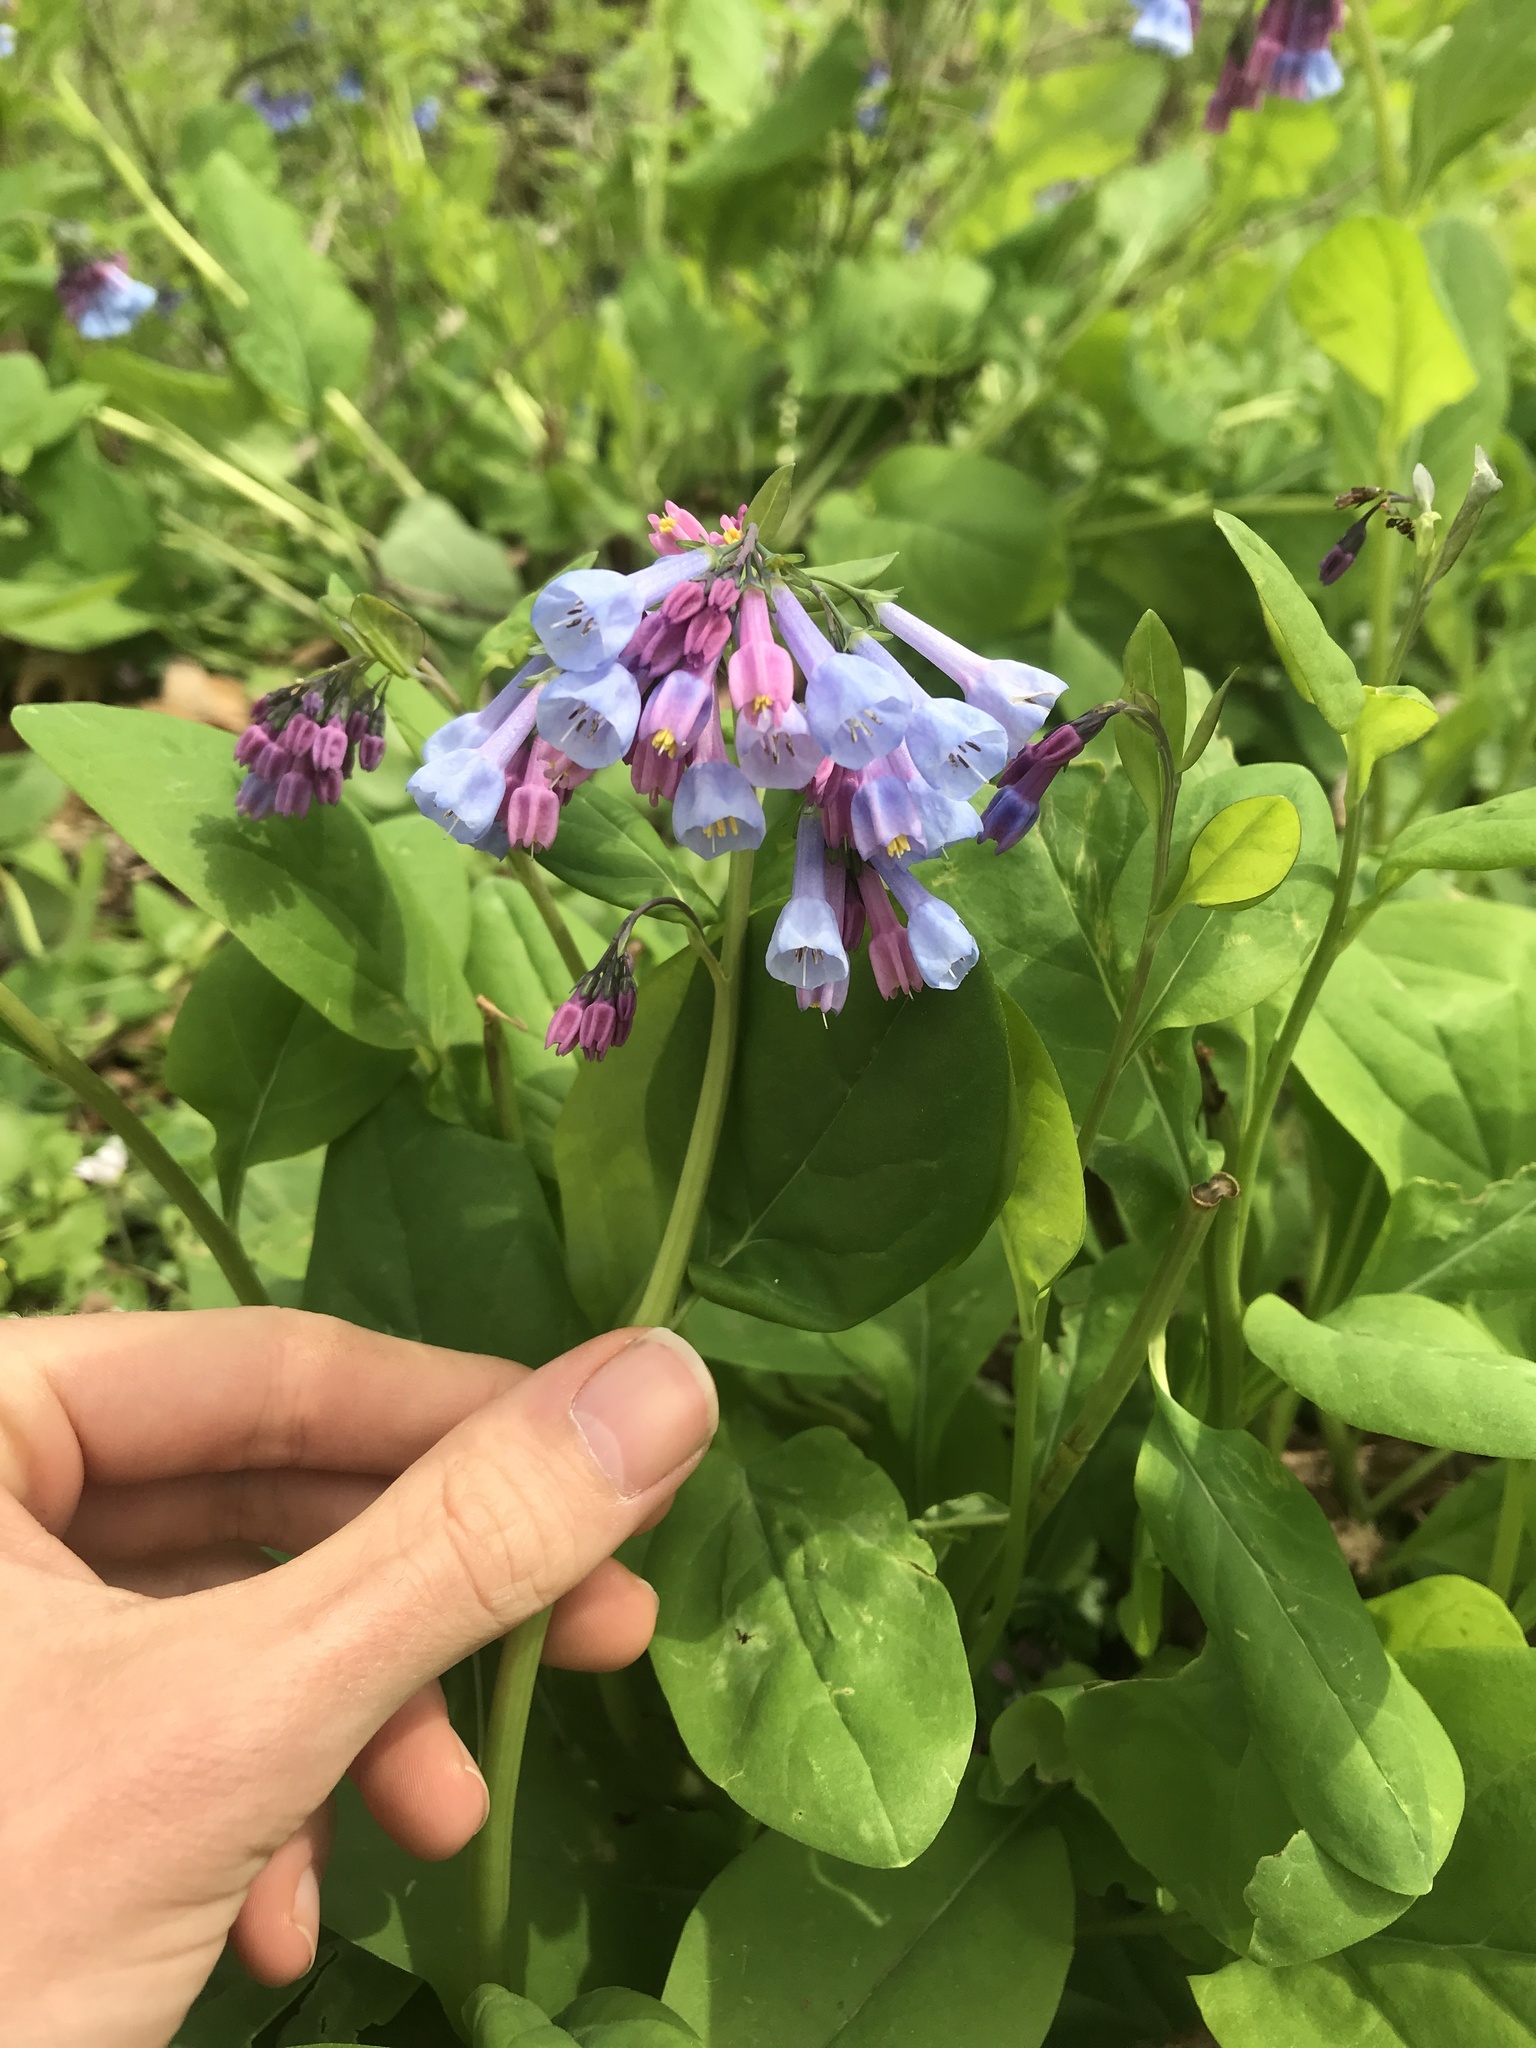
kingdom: Plantae
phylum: Tracheophyta
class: Magnoliopsida
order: Boraginales
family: Boraginaceae
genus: Mertensia
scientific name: Mertensia virginica
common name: Virginia bluebells
